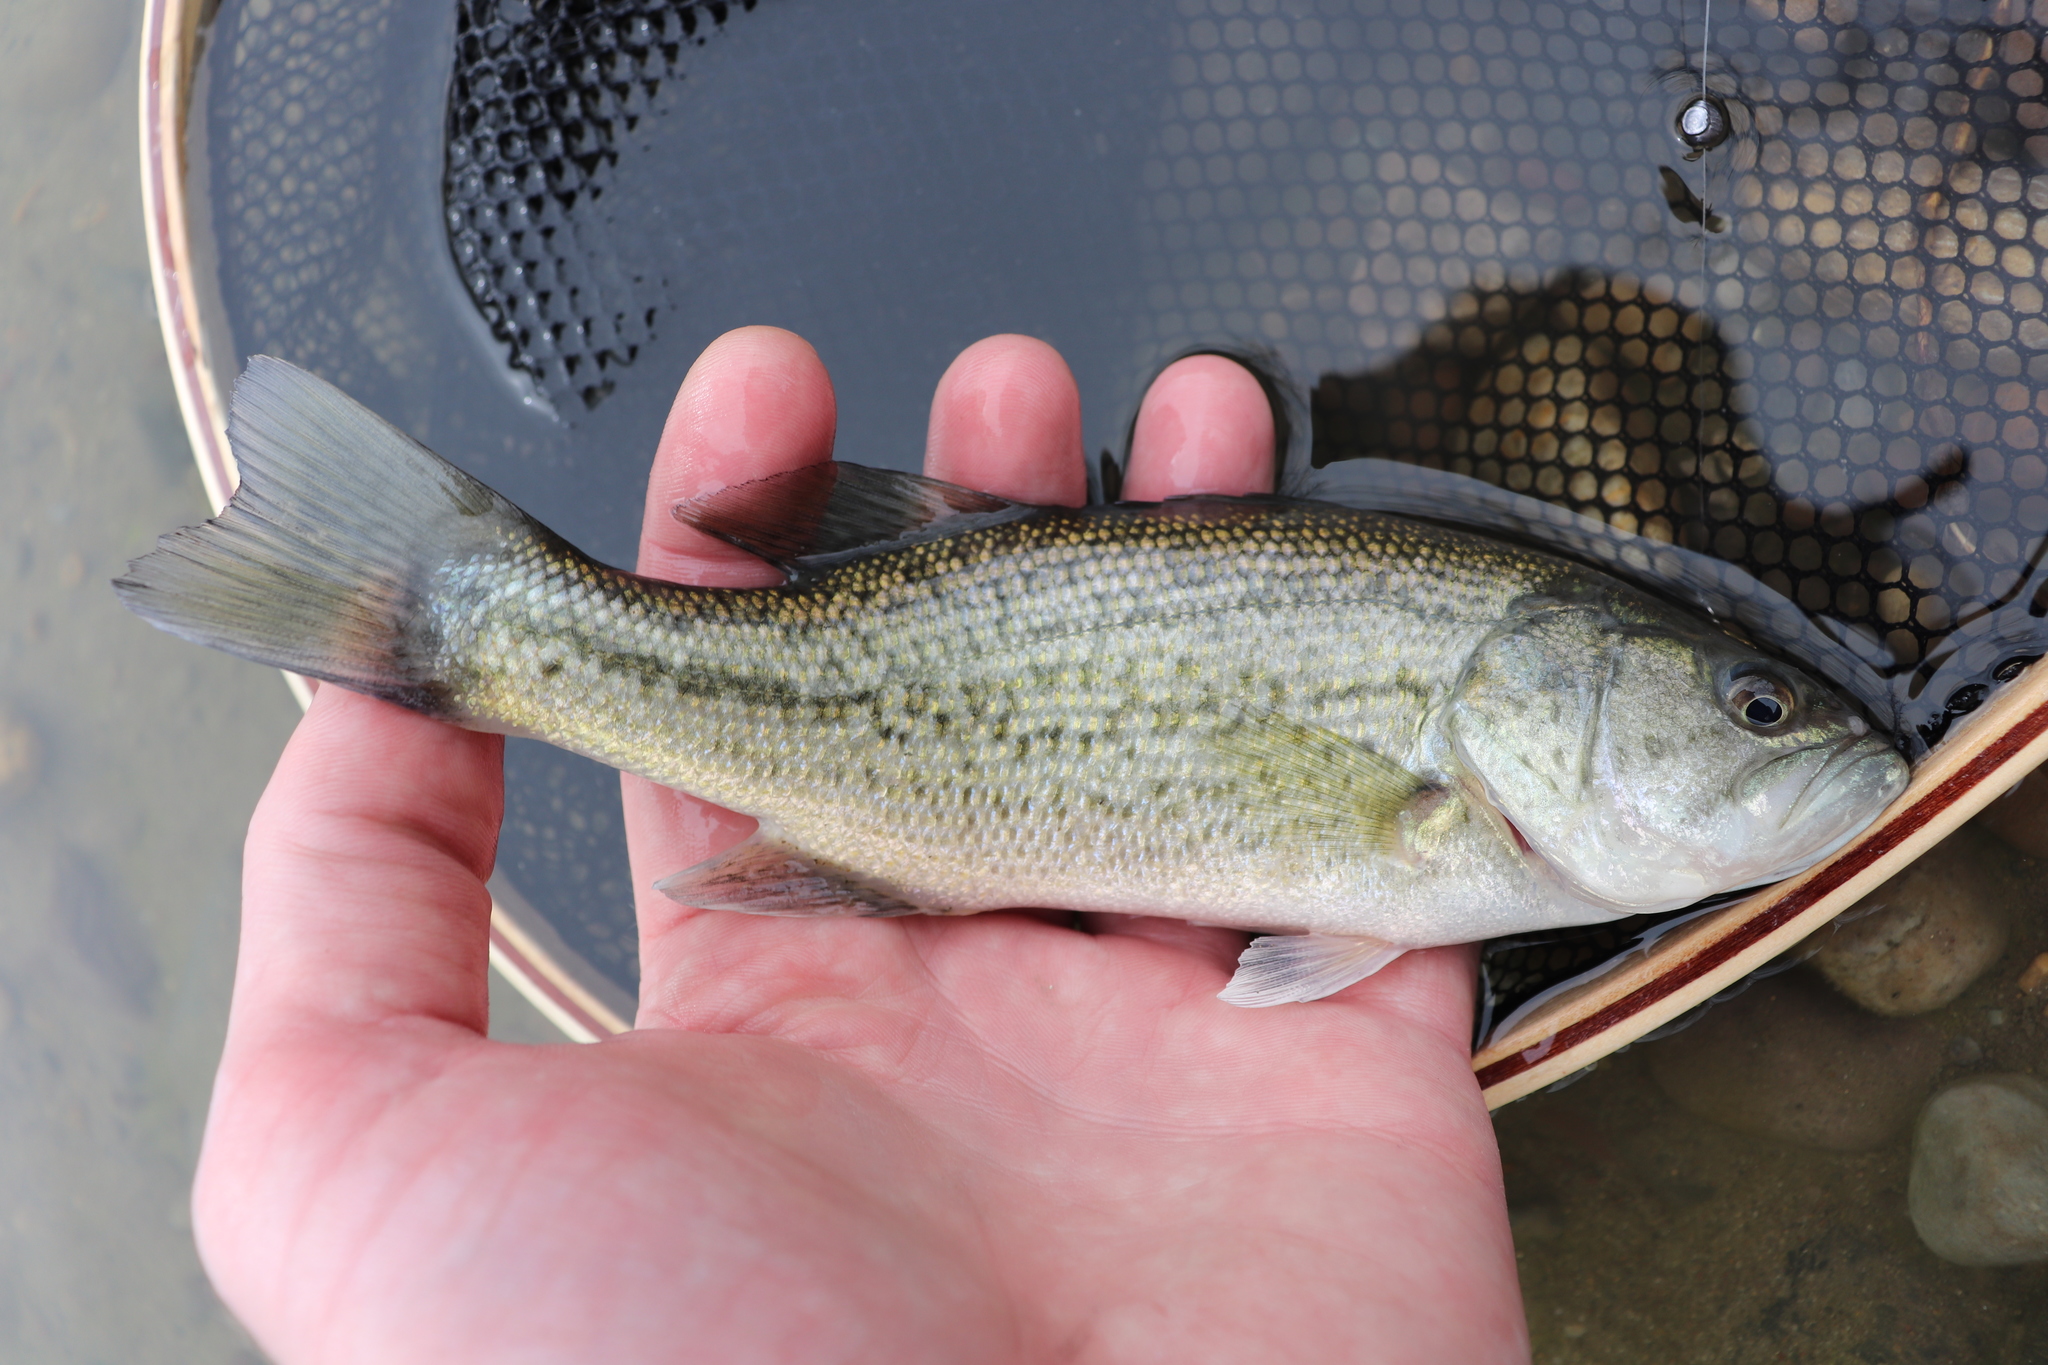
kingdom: Animalia
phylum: Chordata
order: Perciformes
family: Centrarchidae
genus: Micropterus
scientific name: Micropterus
